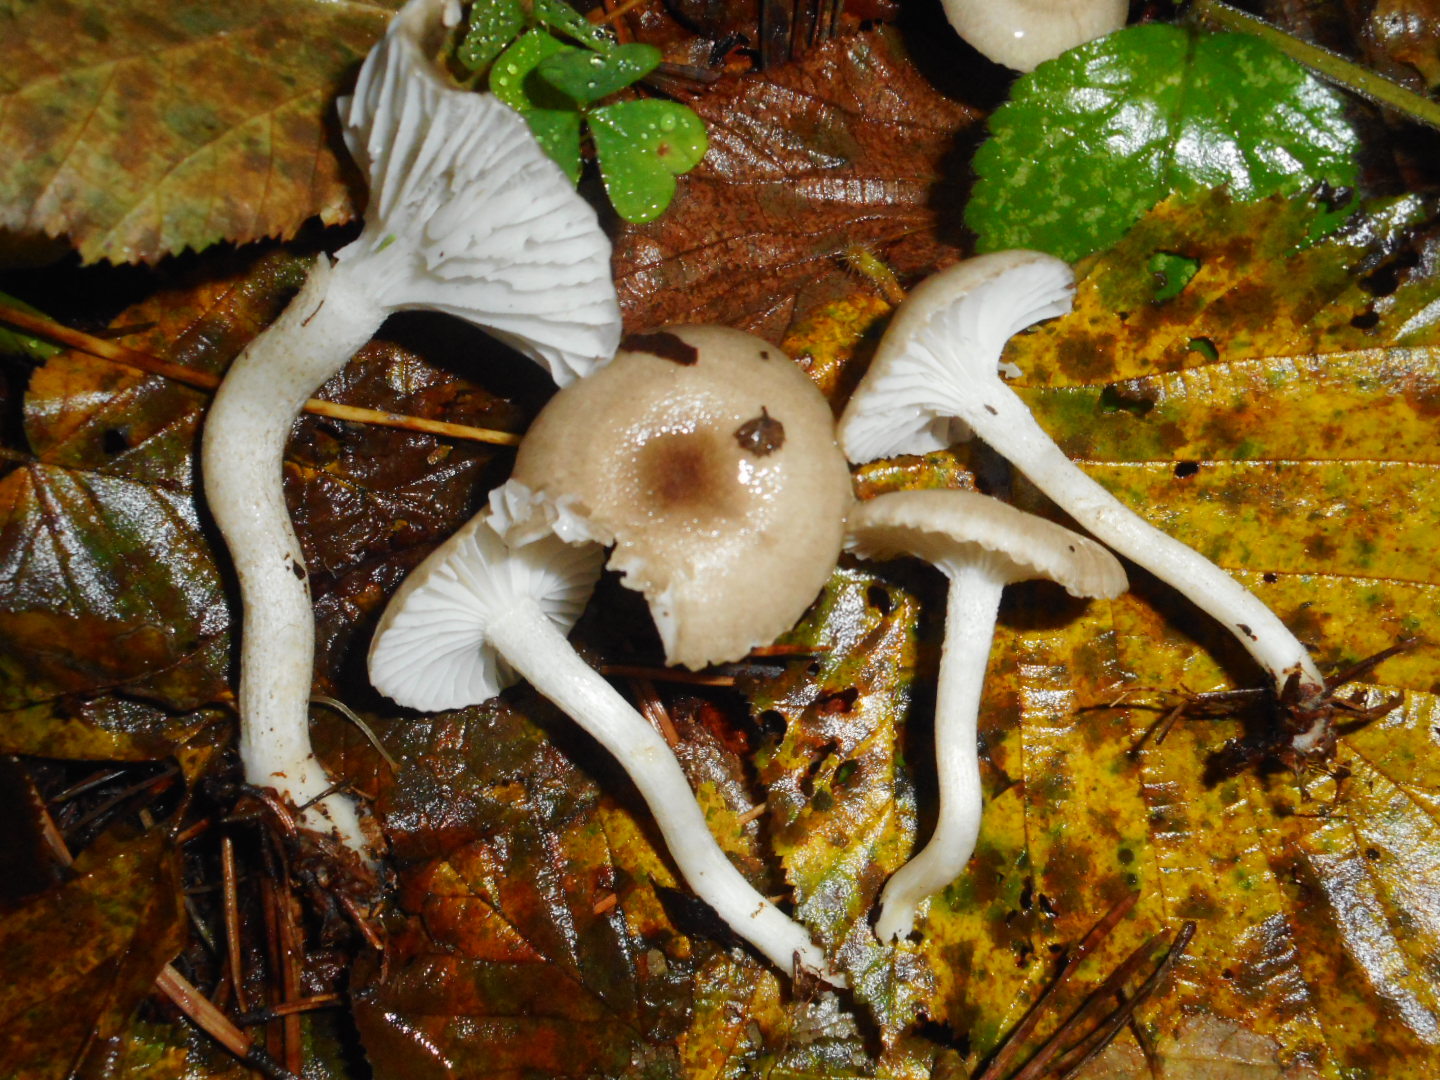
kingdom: Fungi
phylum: Basidiomycota
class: Agaricomycetes
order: Agaricales
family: Hygrophoraceae
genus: Hygrophorus
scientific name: Hygrophorus pustulatus
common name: Blistered woodwax
